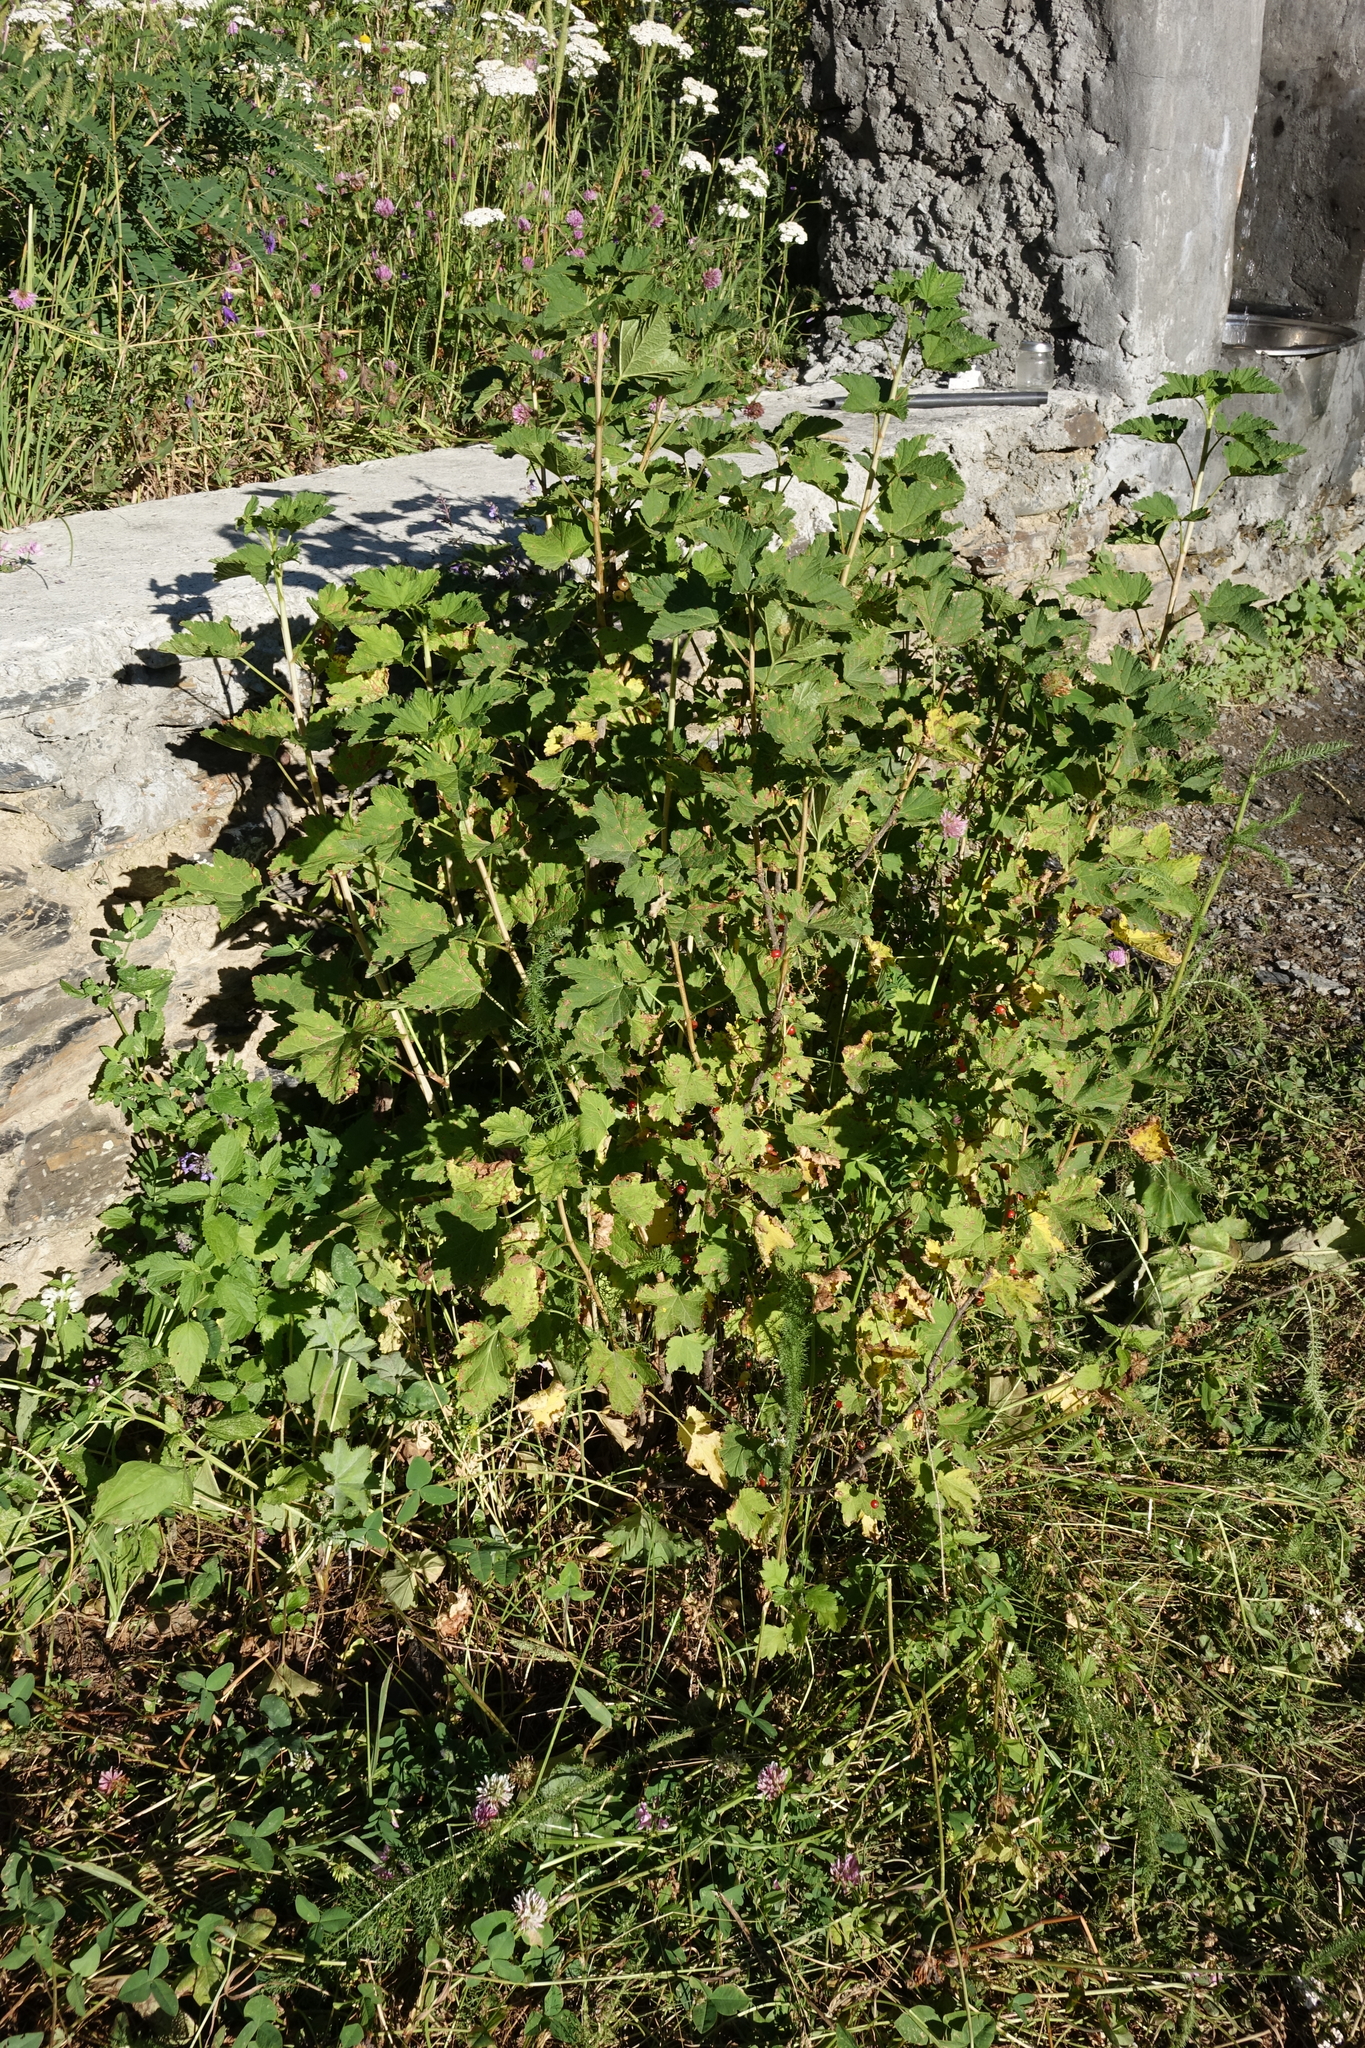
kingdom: Plantae
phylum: Tracheophyta
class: Magnoliopsida
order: Saxifragales
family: Grossulariaceae
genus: Ribes
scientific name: Ribes biebersteinii
